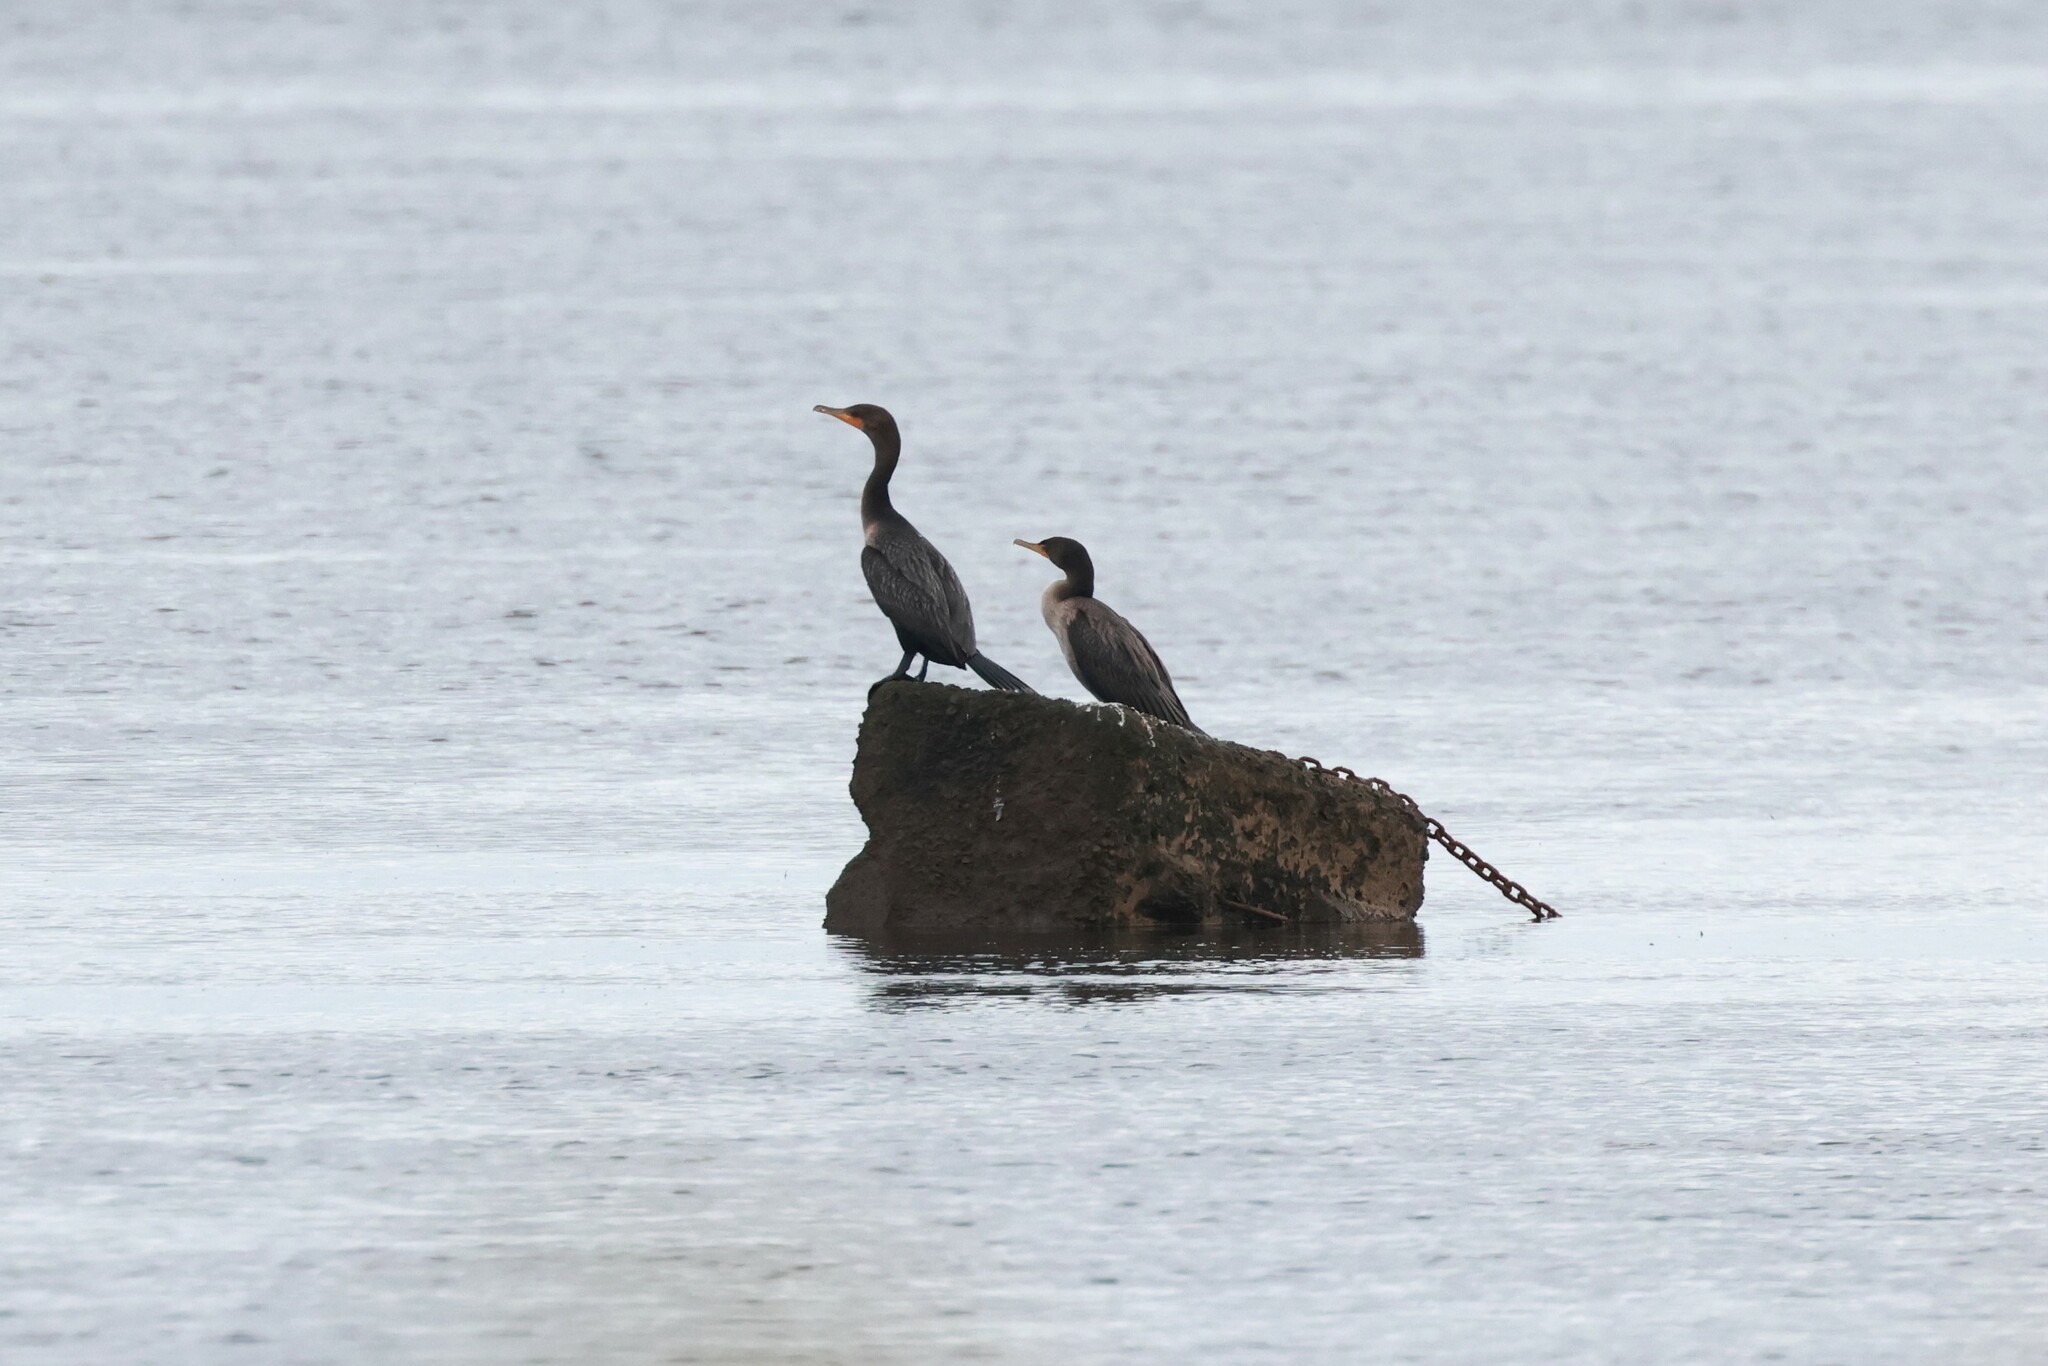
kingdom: Animalia
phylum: Chordata
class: Aves
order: Suliformes
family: Phalacrocoracidae
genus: Phalacrocorax
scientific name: Phalacrocorax auritus
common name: Double-crested cormorant
